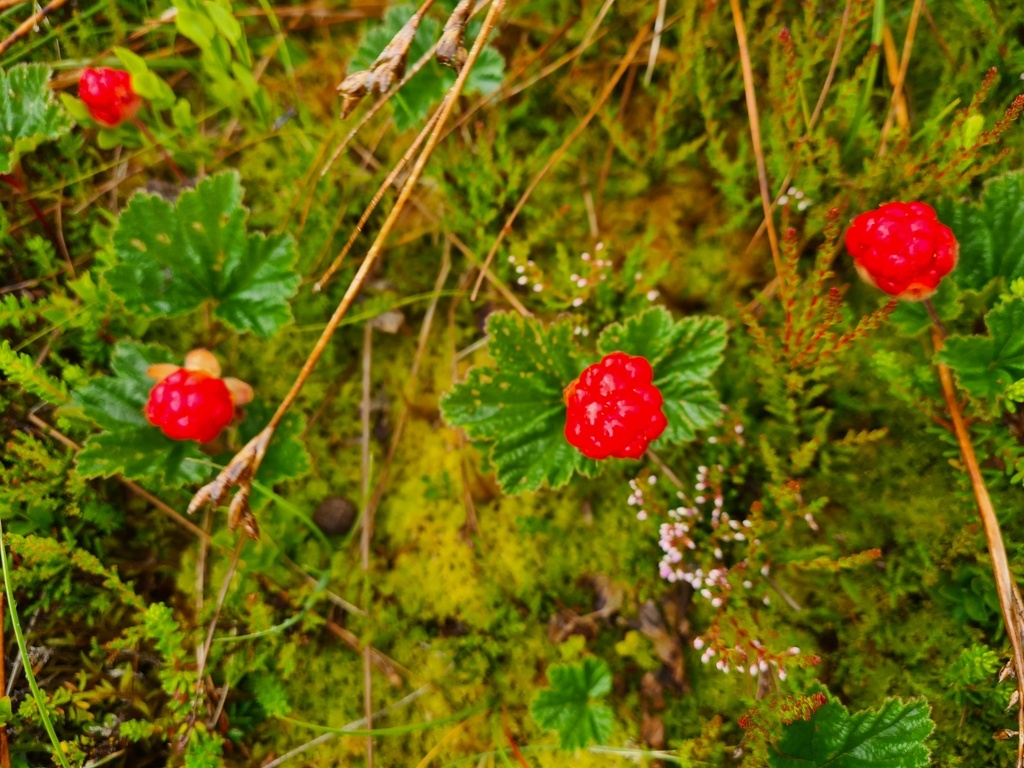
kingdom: Plantae
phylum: Tracheophyta
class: Magnoliopsida
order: Rosales
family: Rosaceae
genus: Rubus
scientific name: Rubus chamaemorus
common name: Cloudberry
